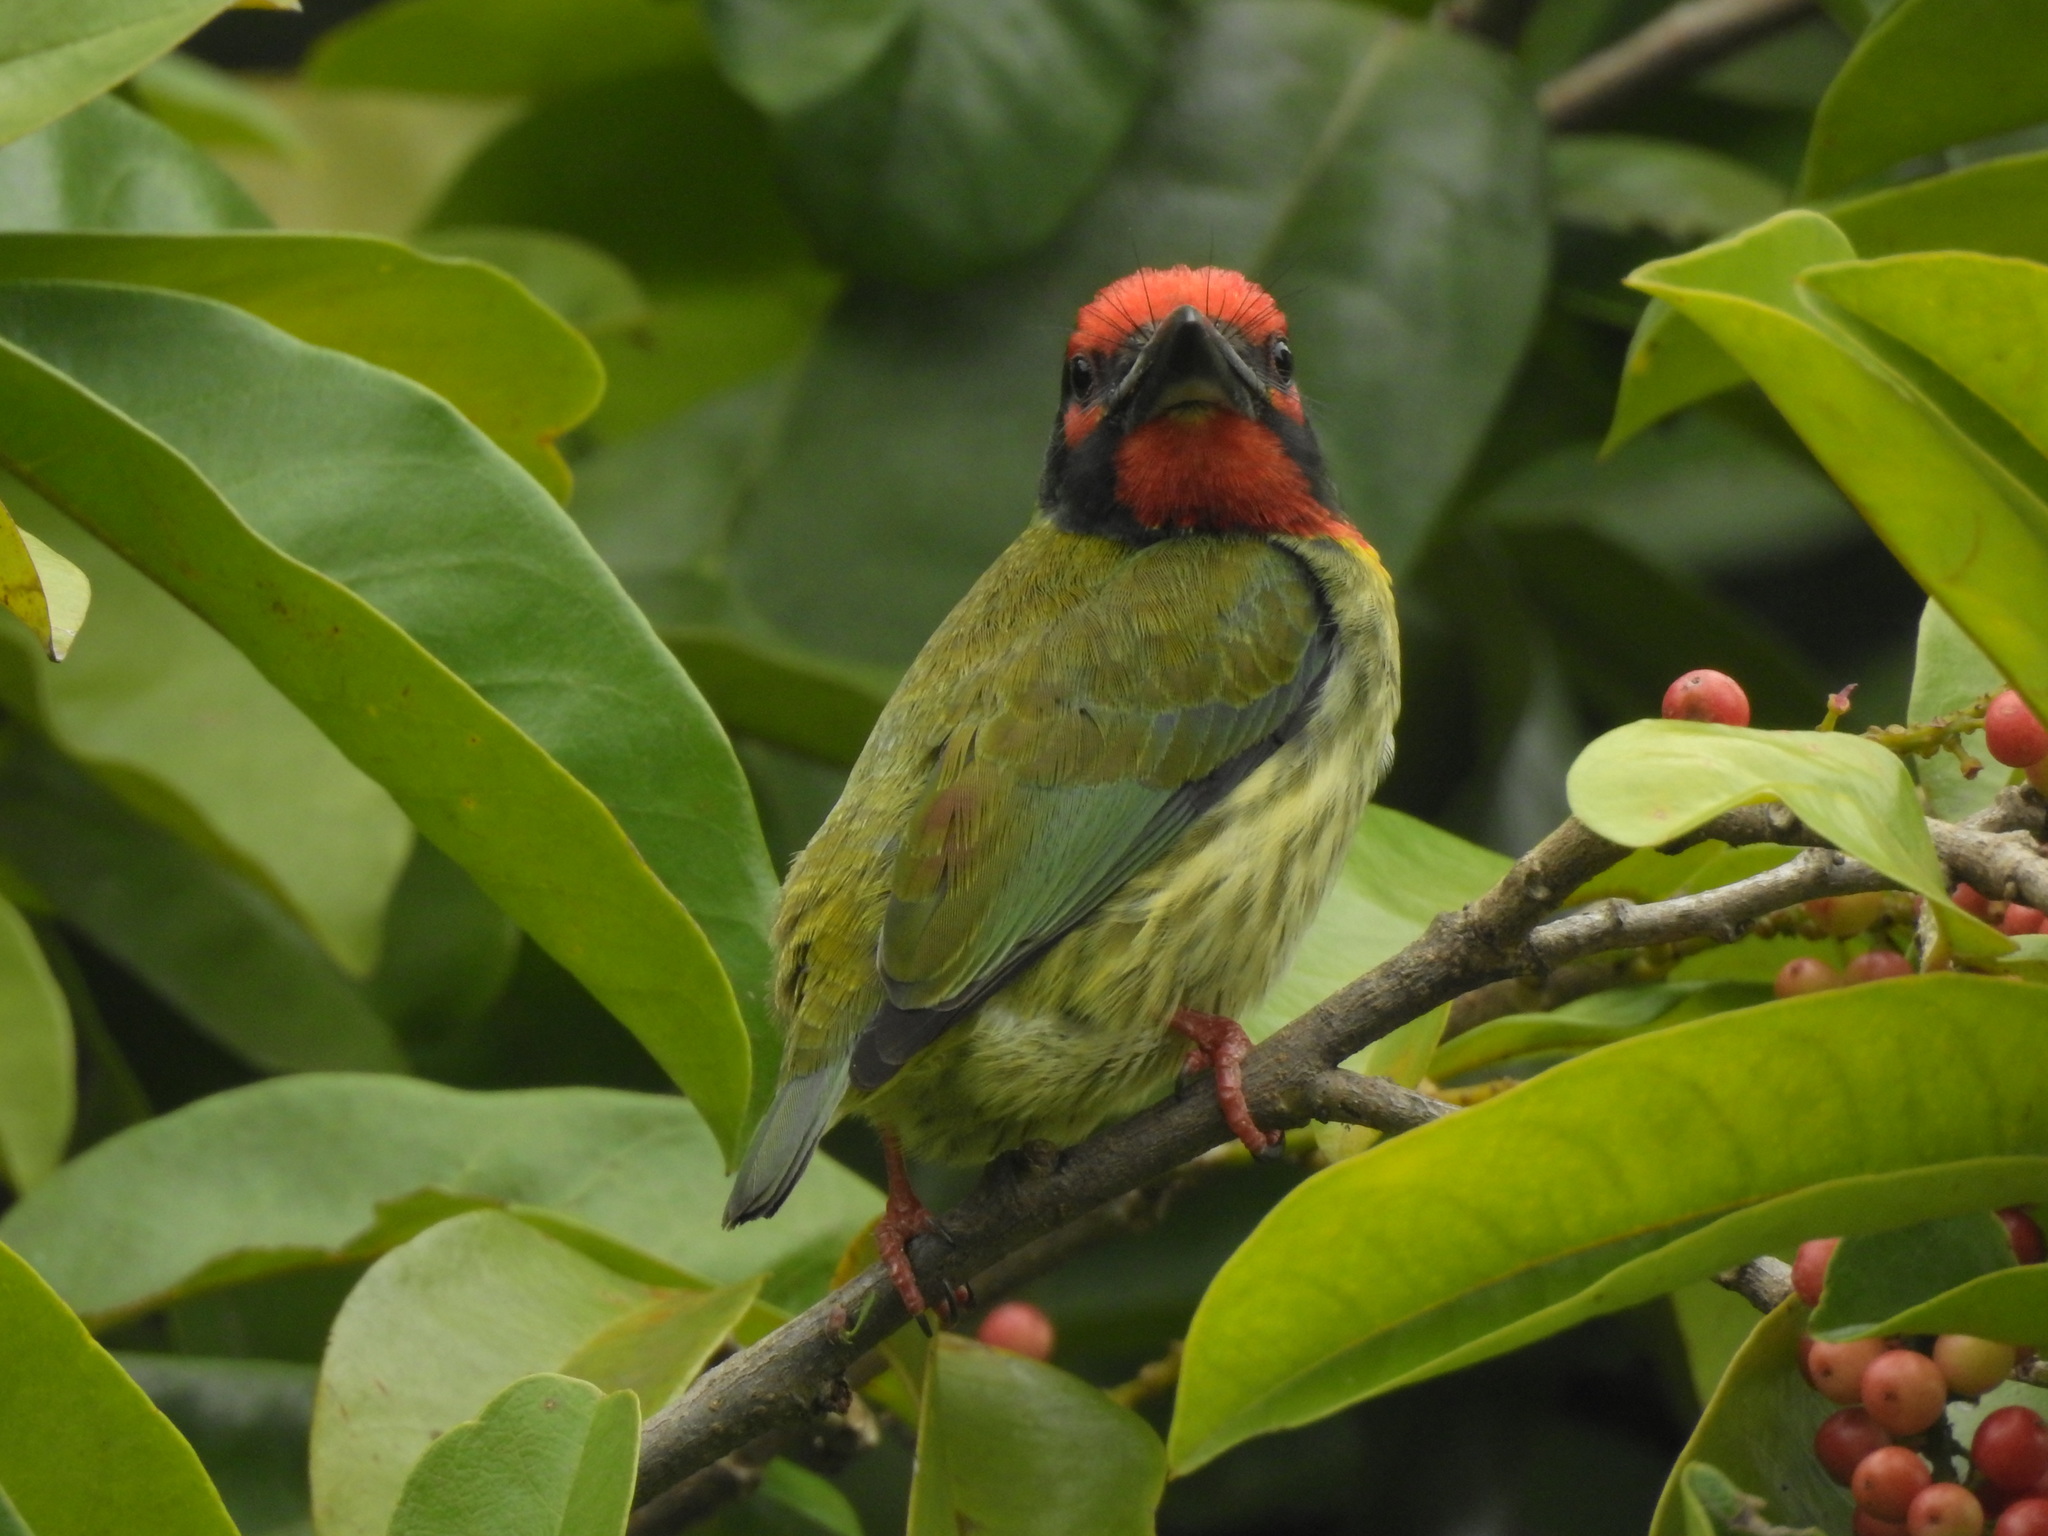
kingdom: Animalia
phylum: Chordata
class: Aves
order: Piciformes
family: Megalaimidae
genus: Psilopogon
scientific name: Psilopogon haemacephalus
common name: Coppersmith barbet
